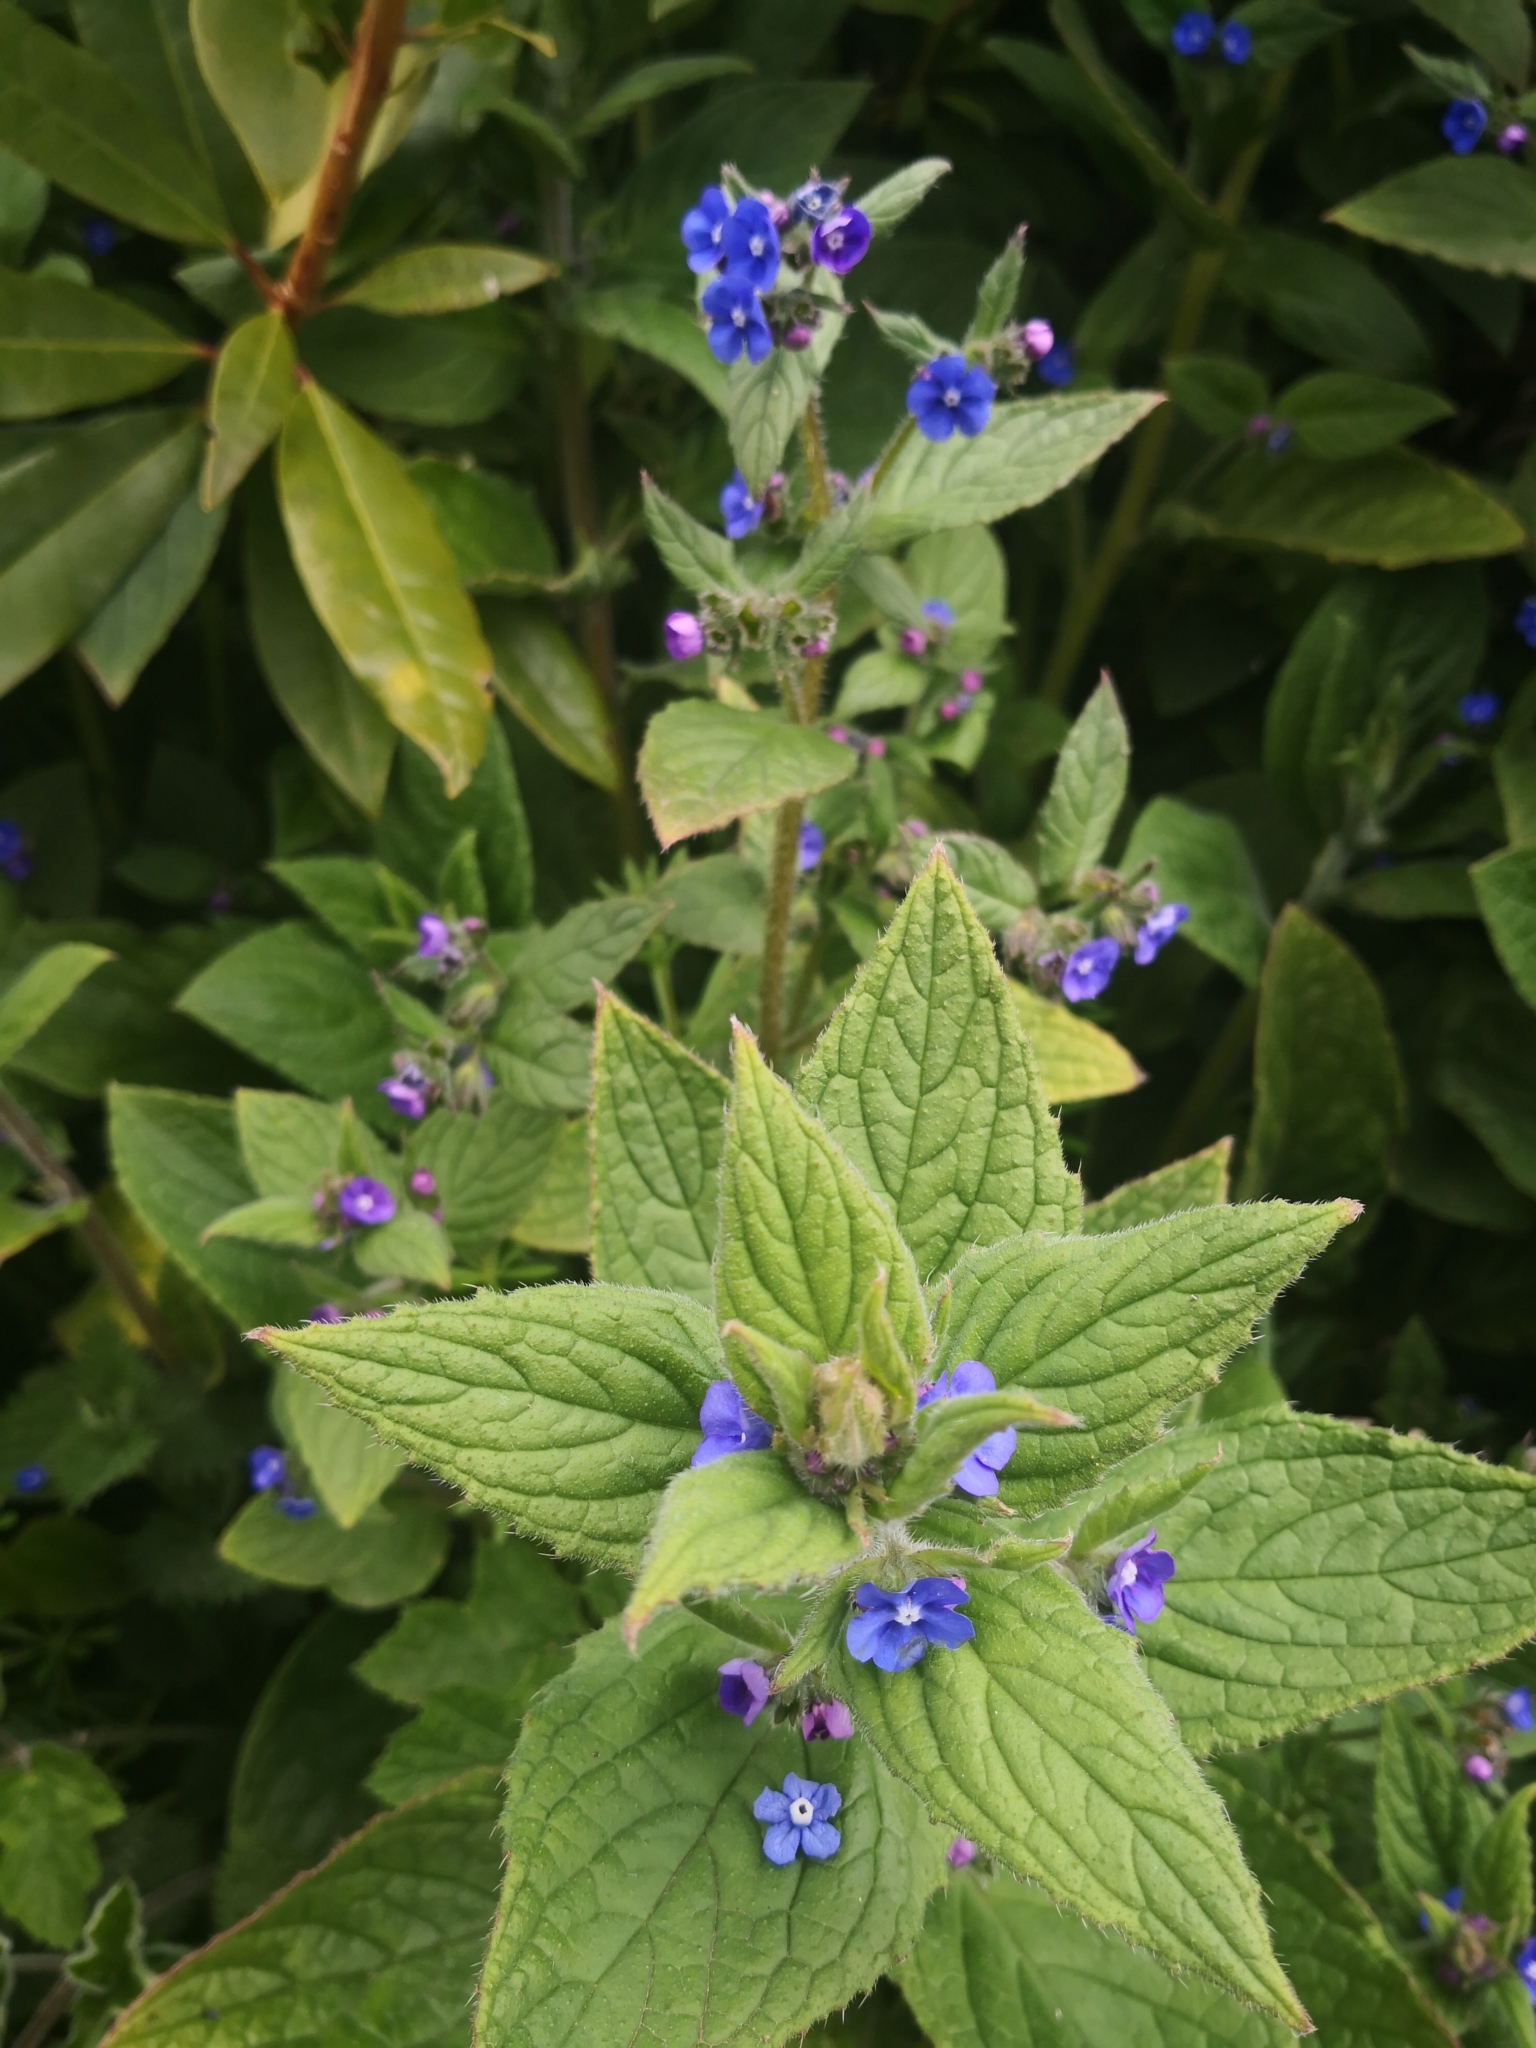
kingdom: Plantae
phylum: Tracheophyta
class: Magnoliopsida
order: Boraginales
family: Boraginaceae
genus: Pentaglottis
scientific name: Pentaglottis sempervirens
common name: Green alkanet
